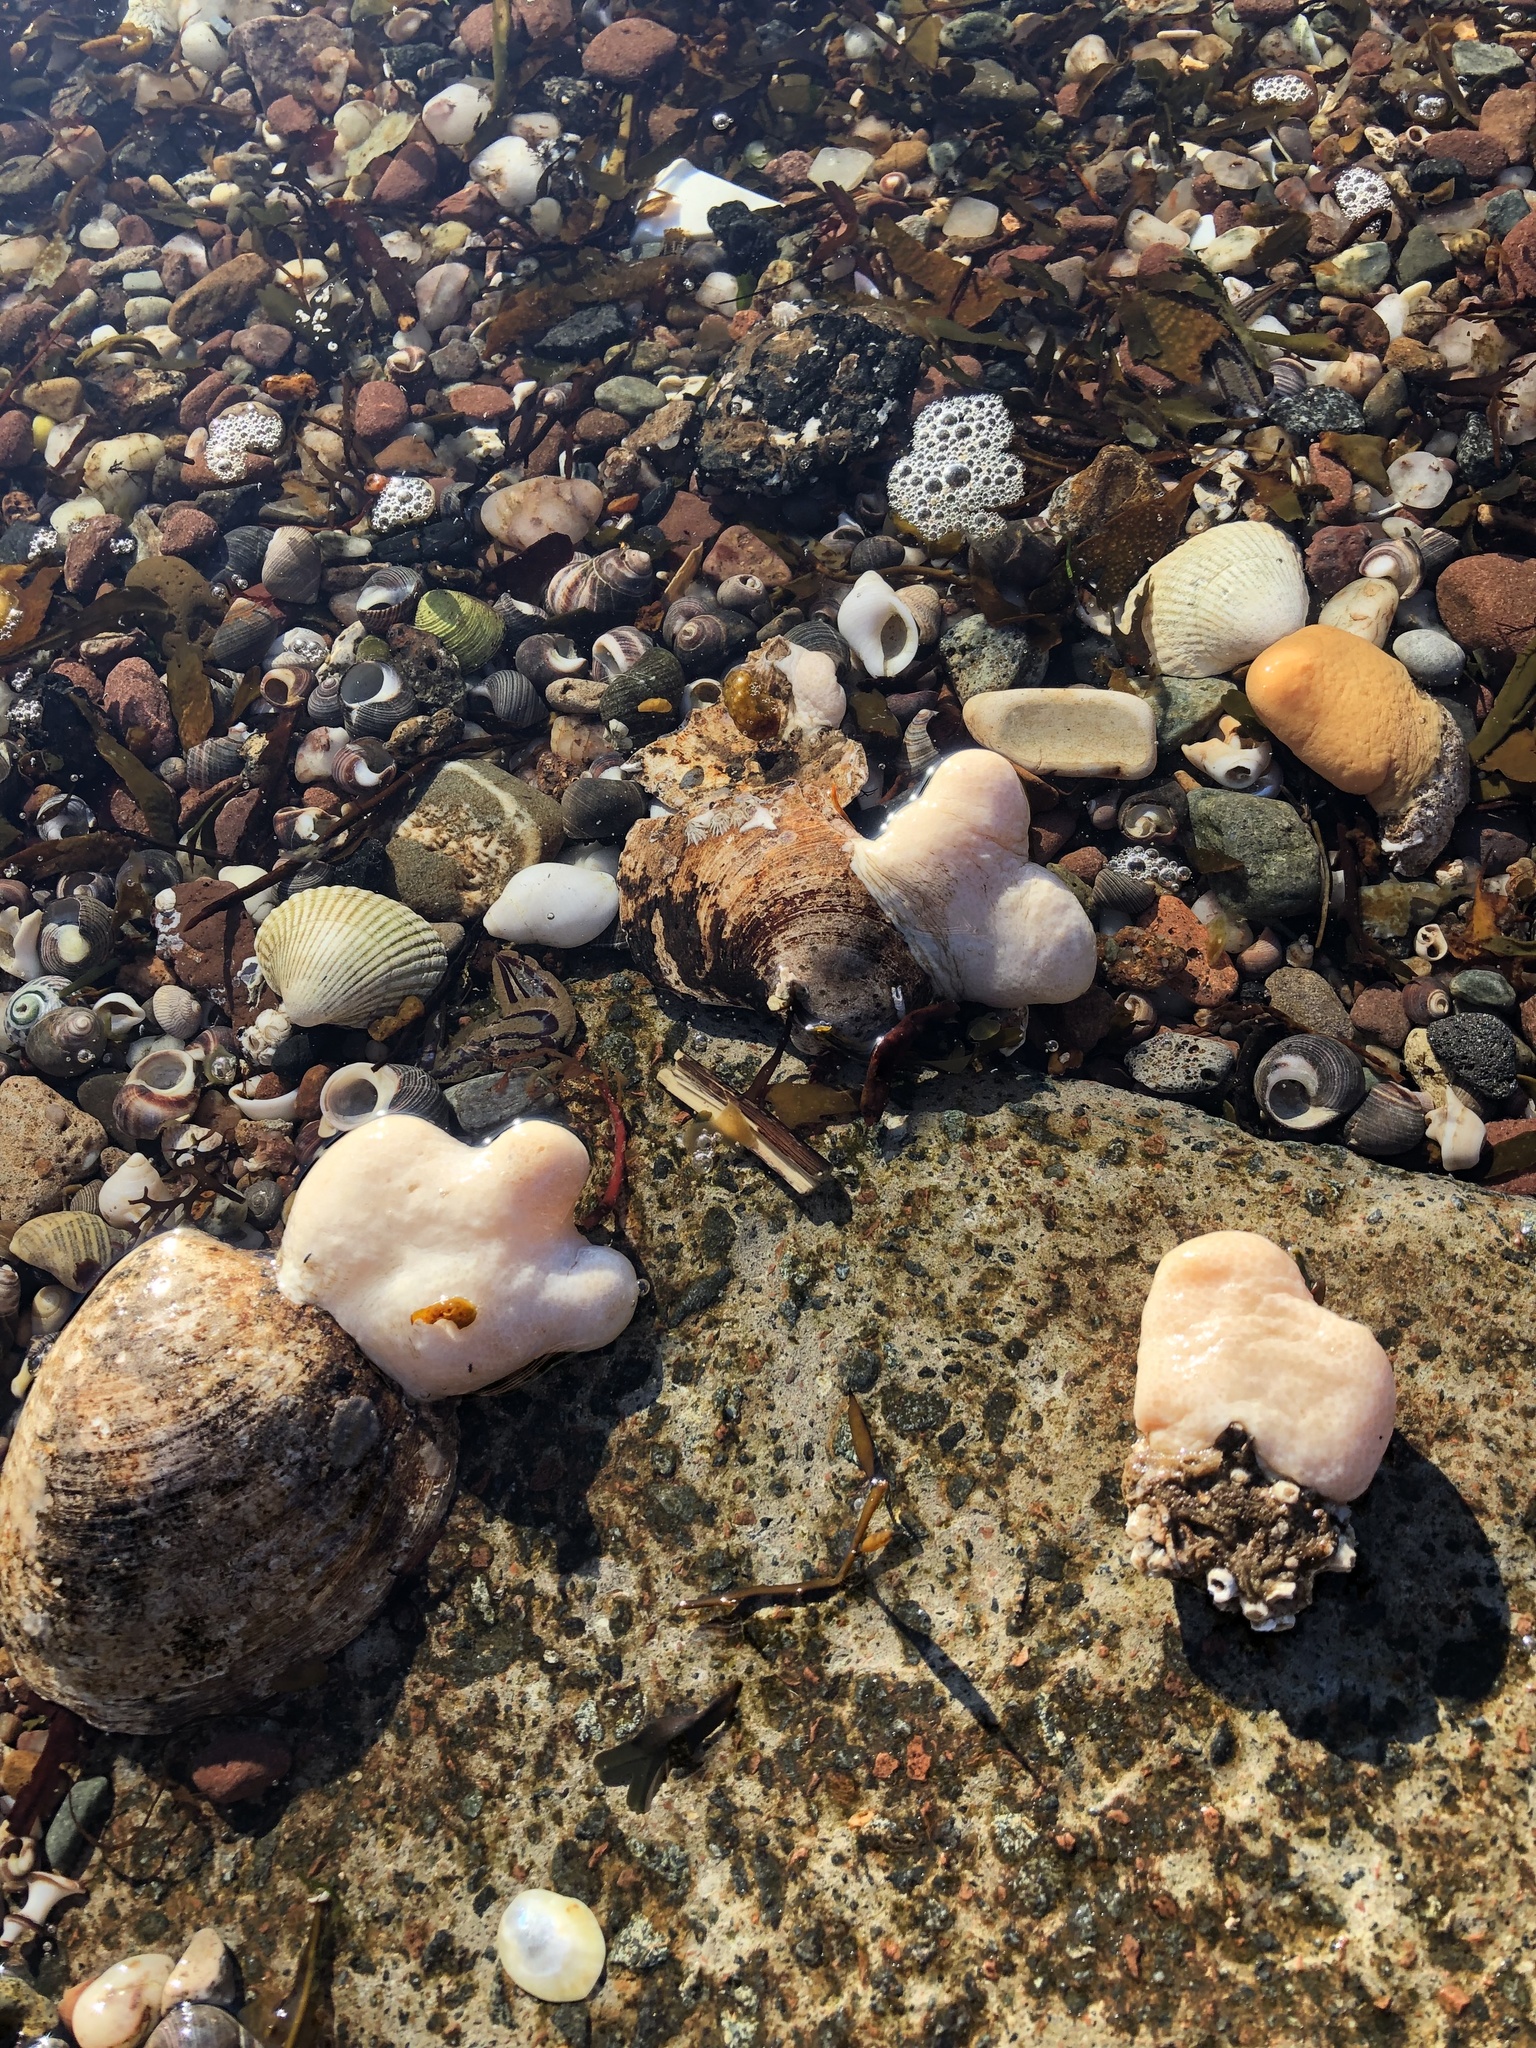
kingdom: Animalia
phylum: Cnidaria
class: Anthozoa
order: Malacalcyonacea
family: Alcyoniidae
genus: Alcyonium
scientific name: Alcyonium digitatum
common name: Dead man's fingers
